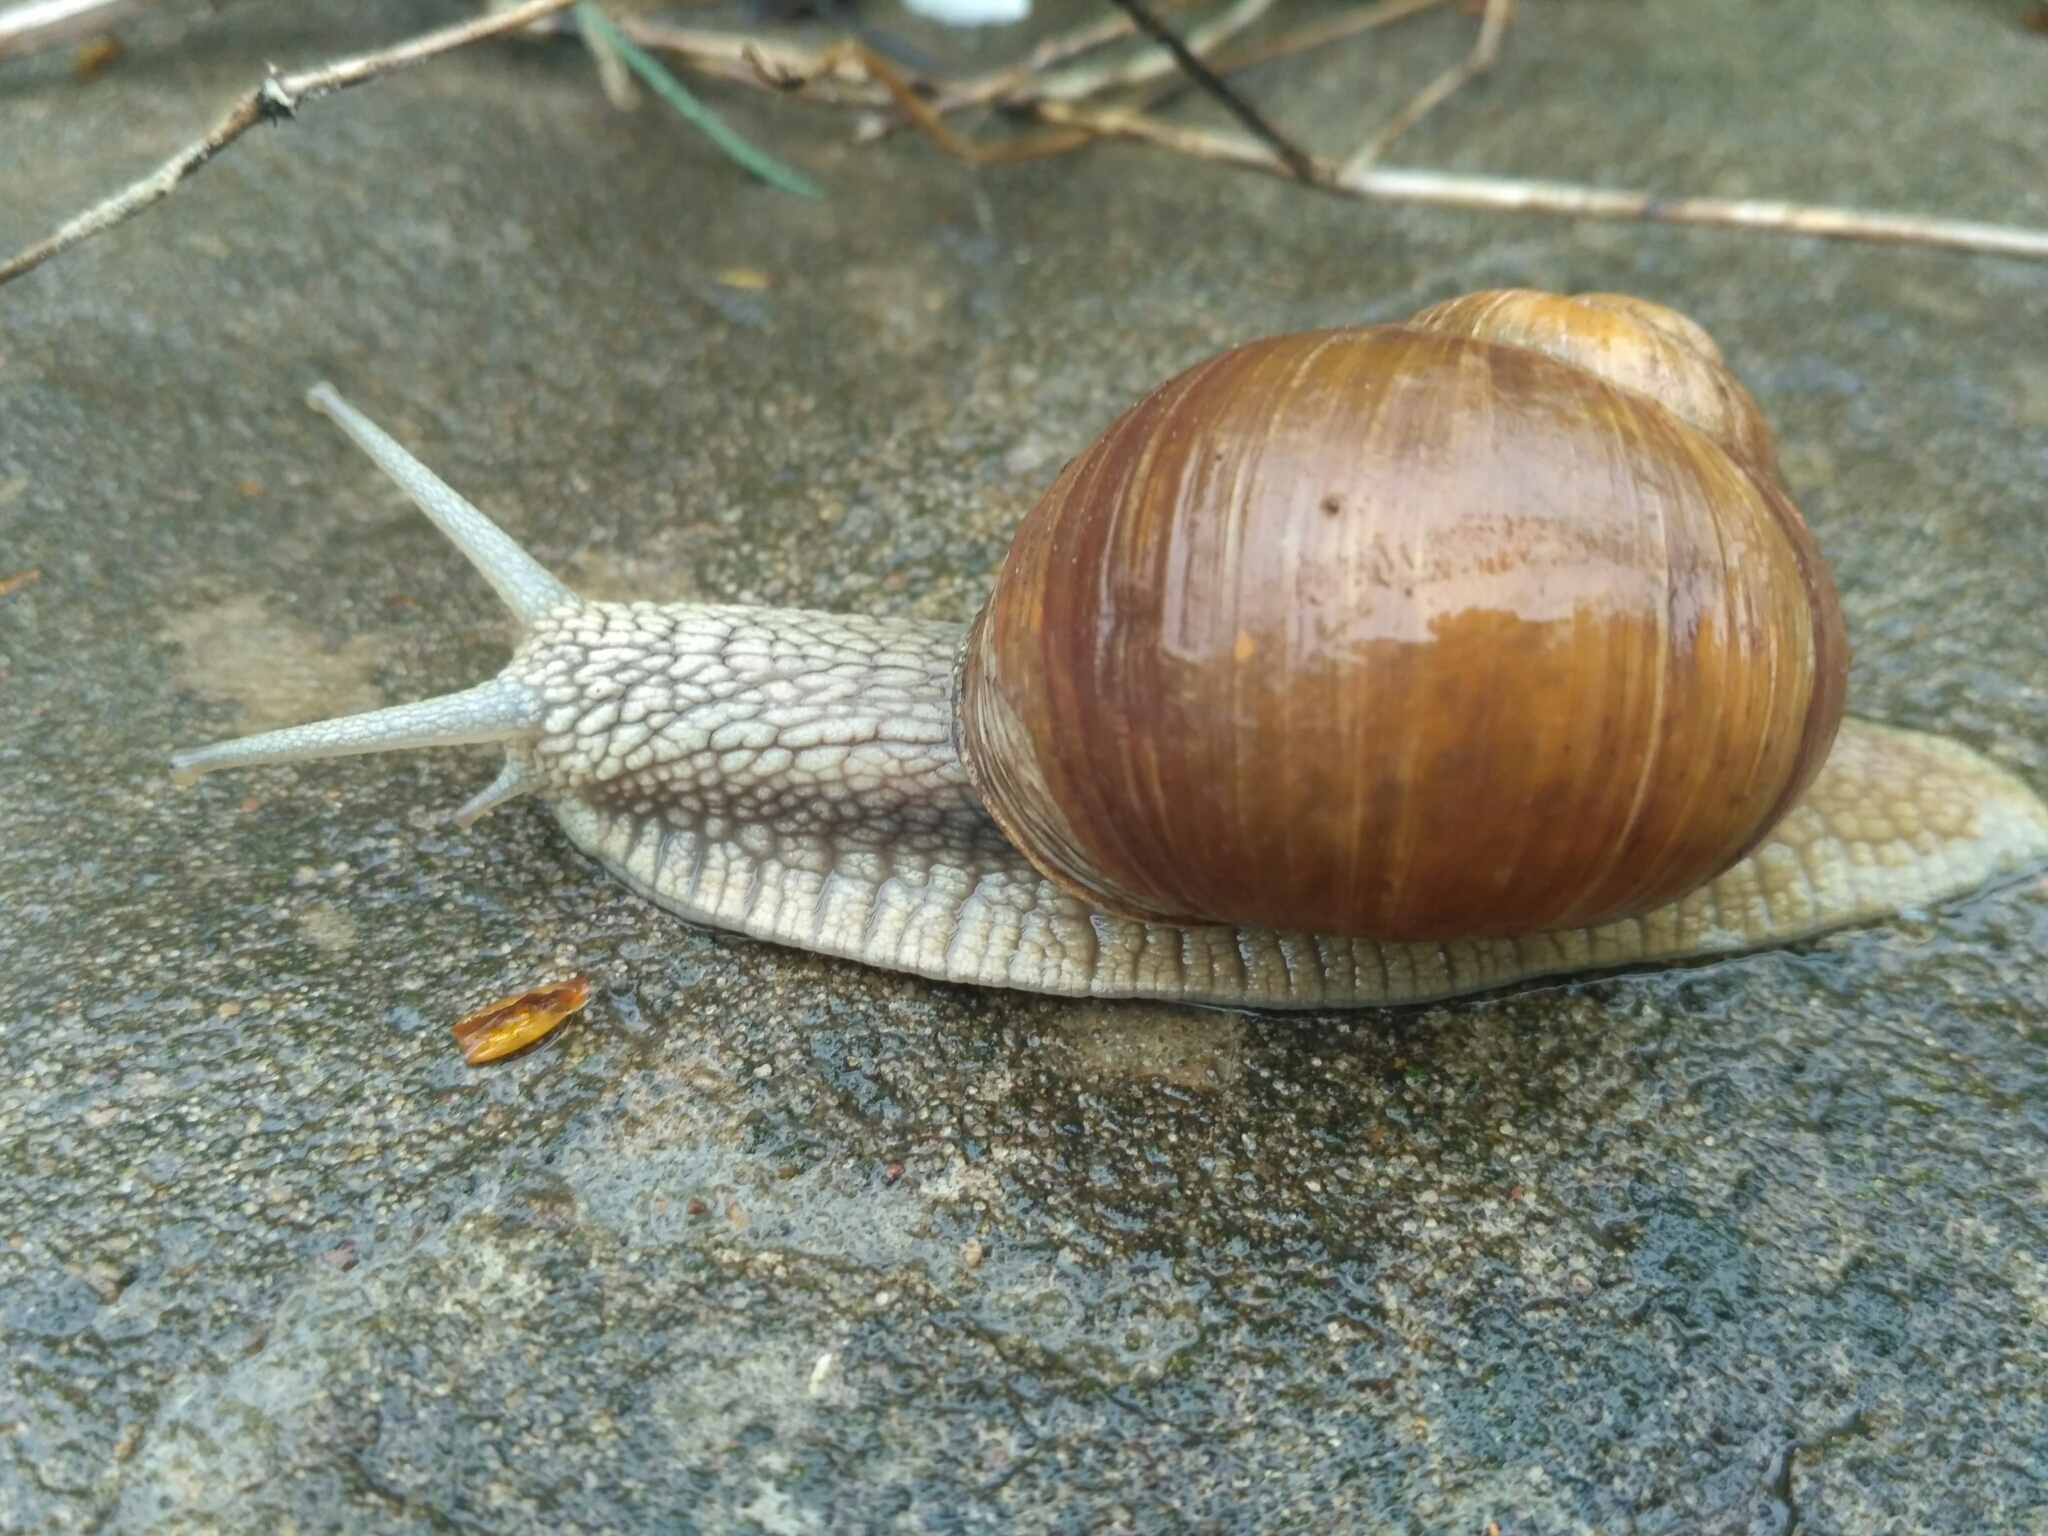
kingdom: Animalia
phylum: Mollusca
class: Gastropoda
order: Stylommatophora
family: Helicidae
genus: Helix
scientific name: Helix pomatia
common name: Roman snail
